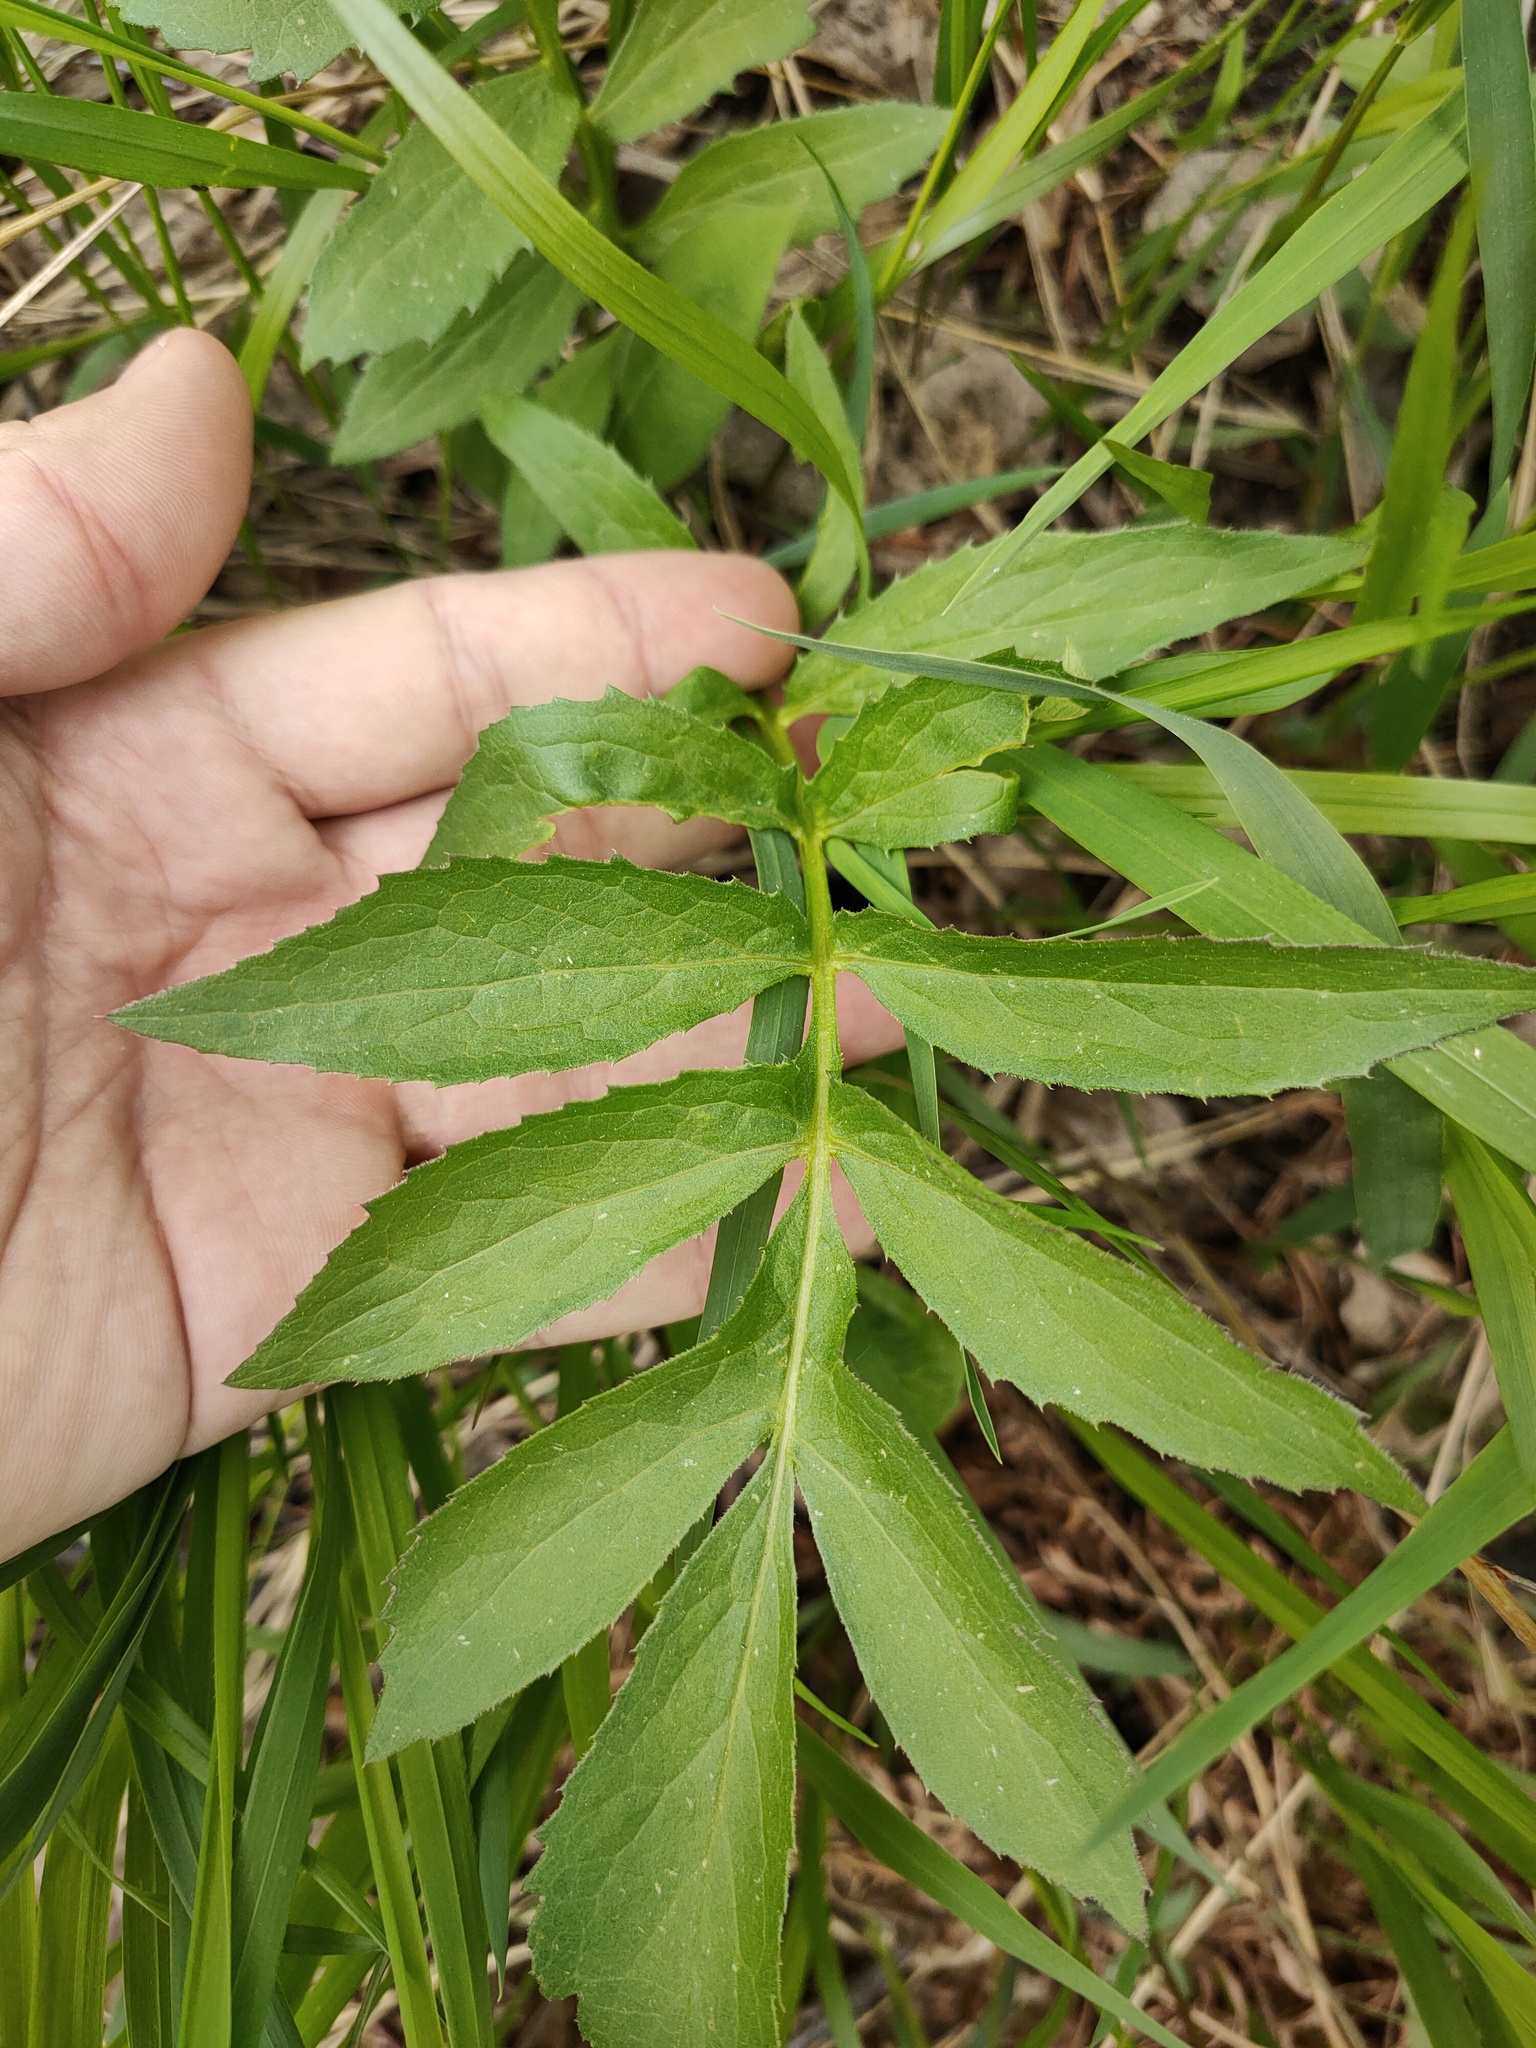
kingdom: Plantae
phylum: Tracheophyta
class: Magnoliopsida
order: Asterales
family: Asteraceae
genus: Serratula
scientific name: Serratula coronata
